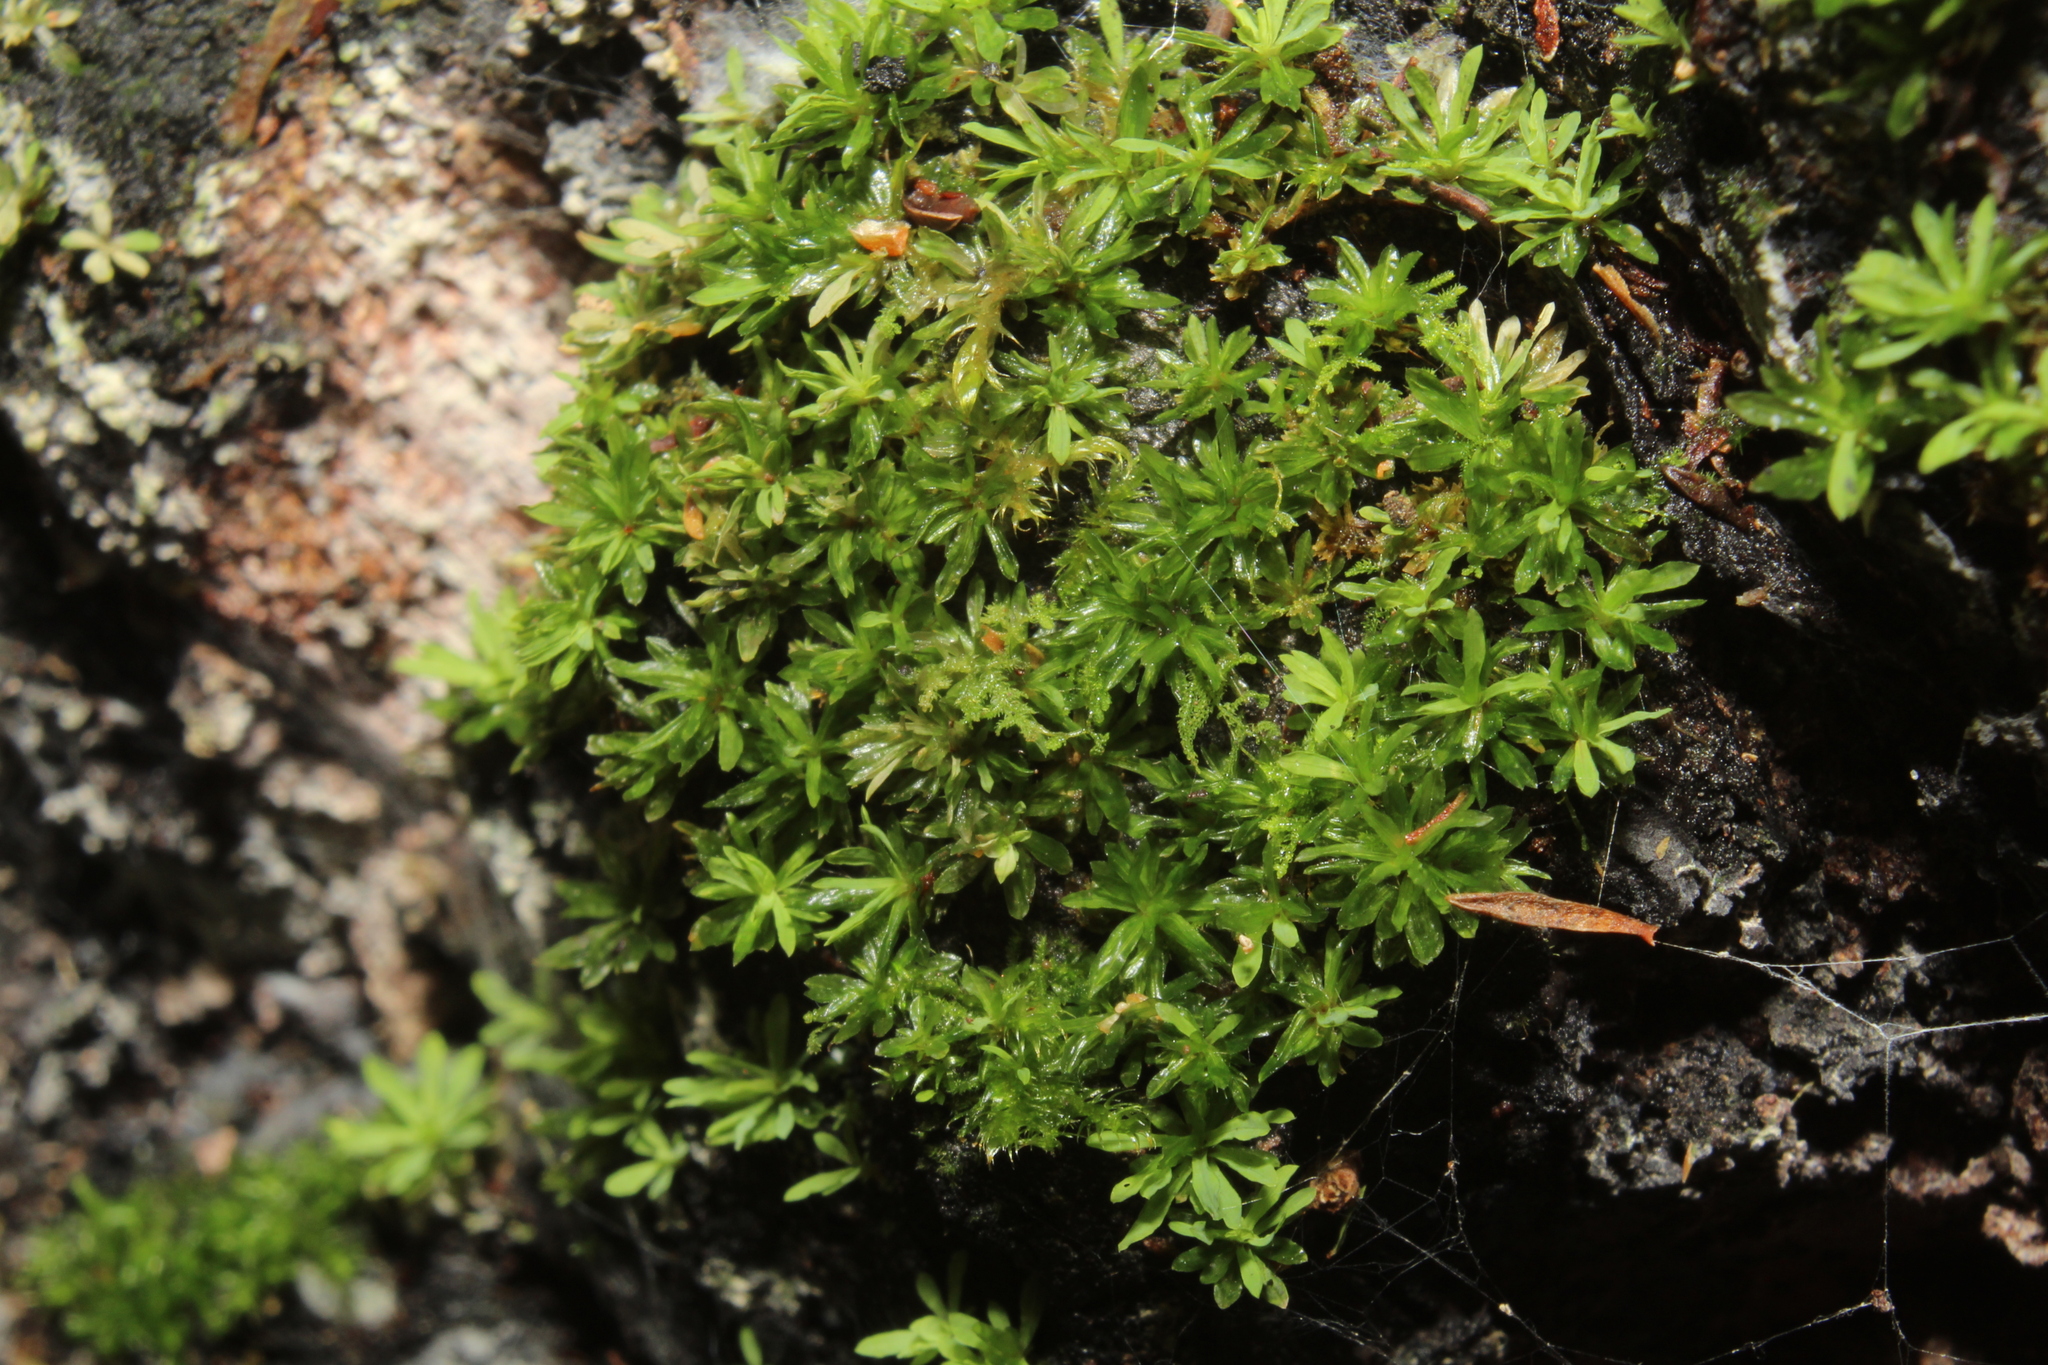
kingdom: Plantae
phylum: Bryophyta
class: Bryopsida
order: Pottiales
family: Pottiaceae
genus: Calymperastrum
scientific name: Calymperastrum latifolium
